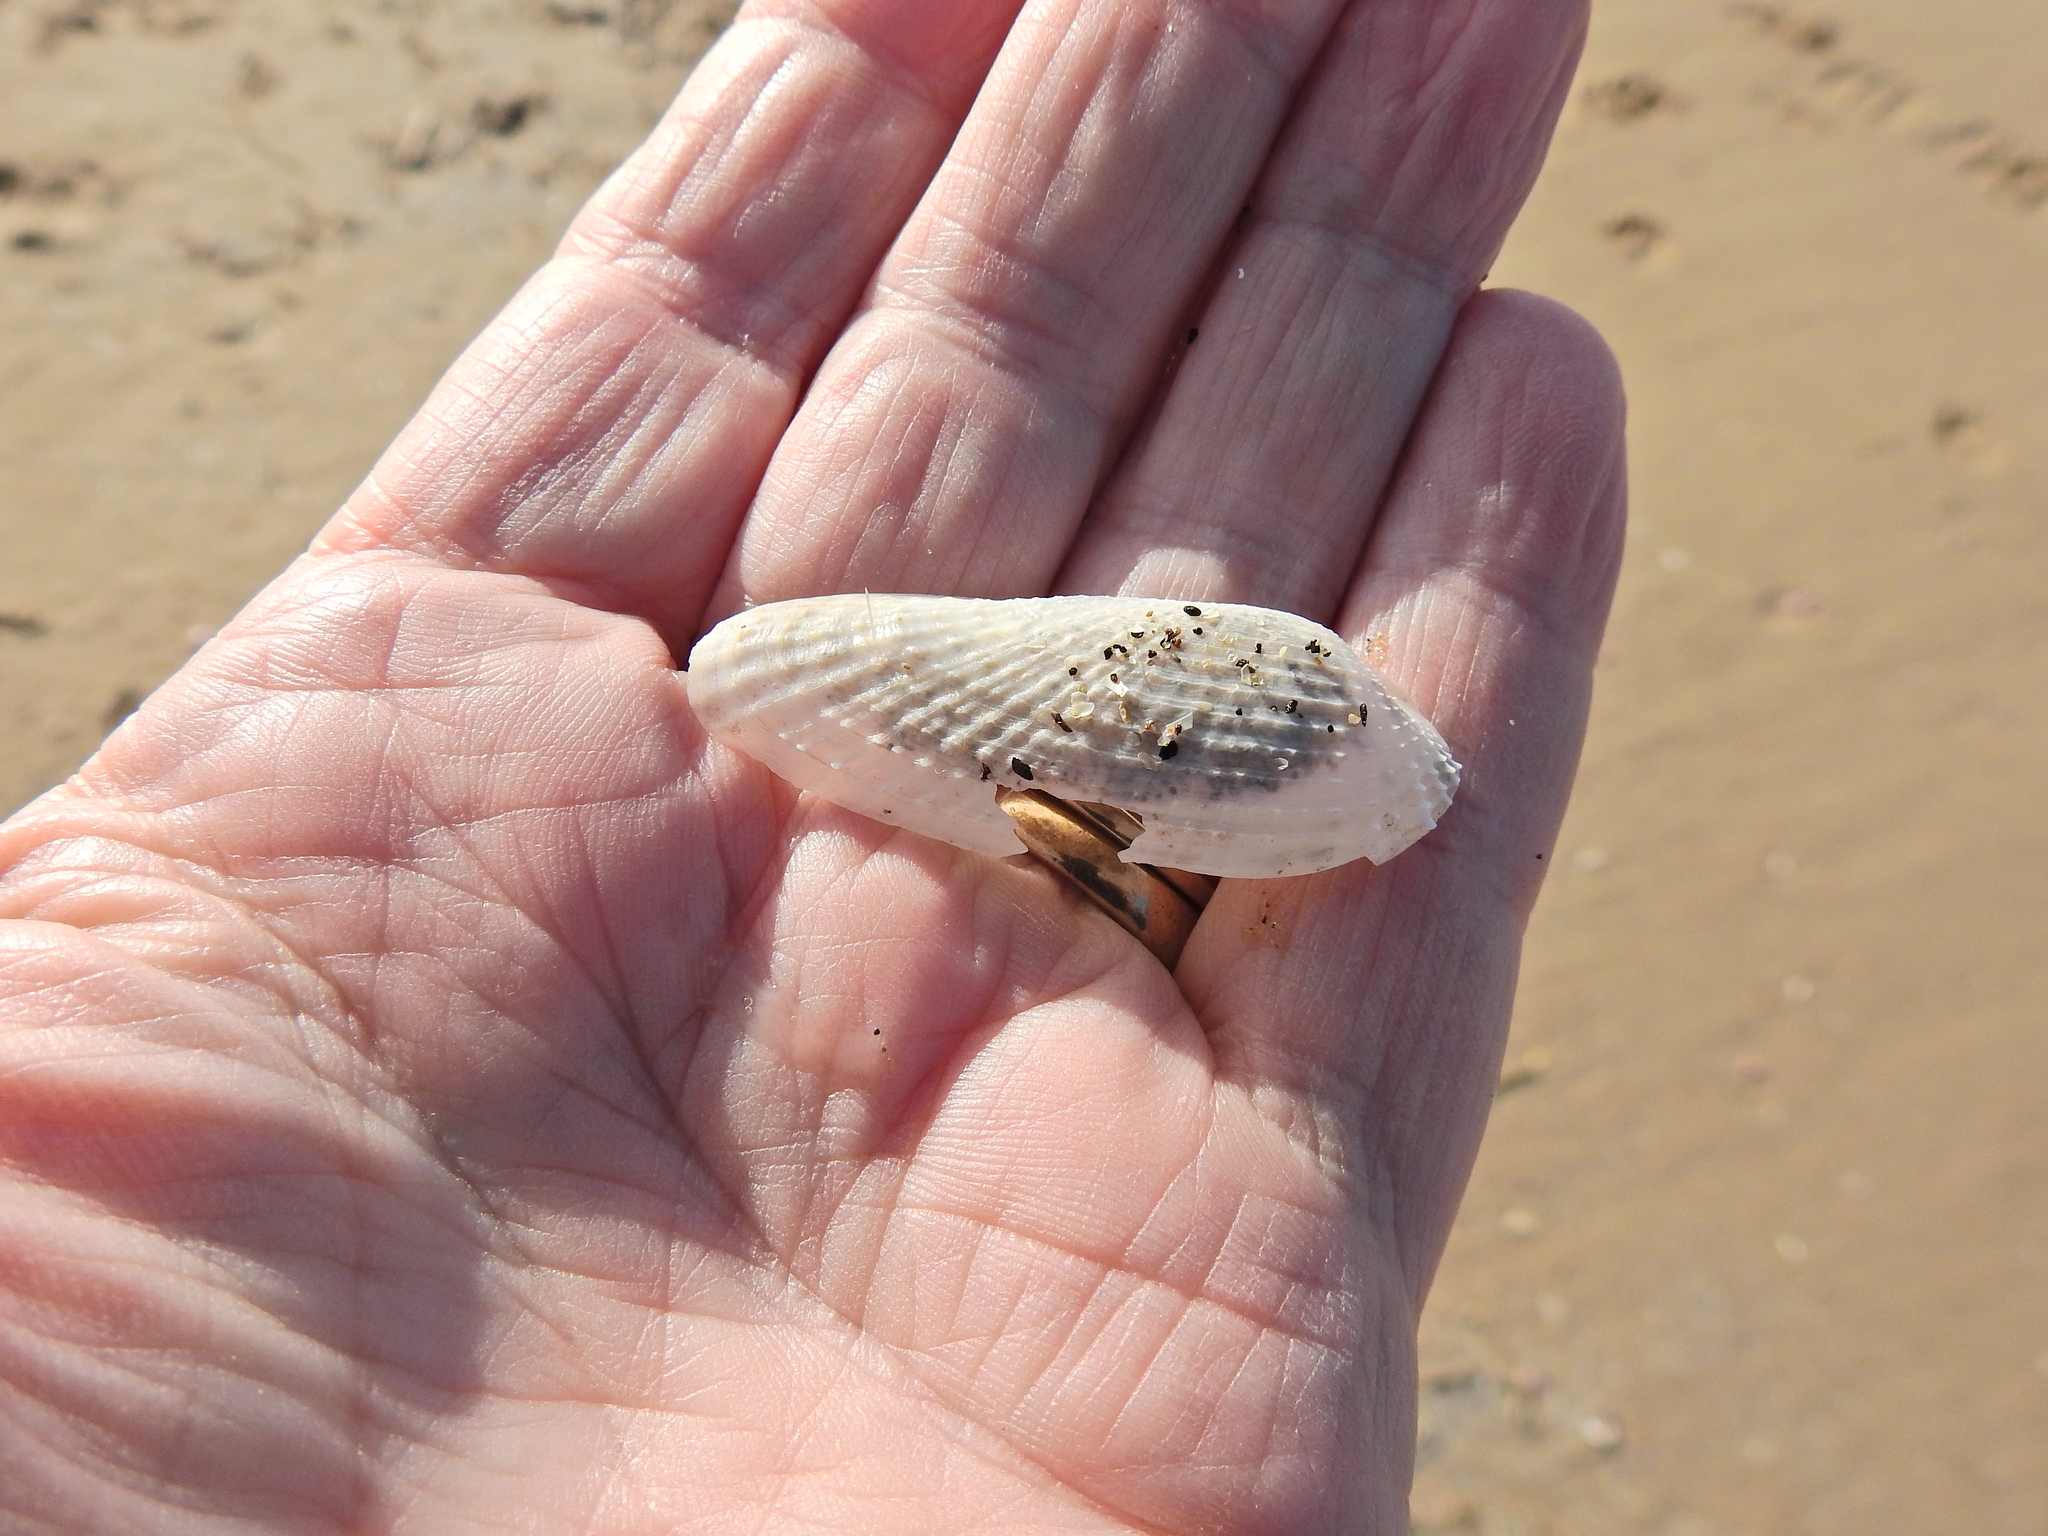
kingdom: Animalia
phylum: Mollusca
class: Bivalvia
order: Myida
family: Pholadidae
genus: Barnea
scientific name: Barnea candida
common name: White piddock
